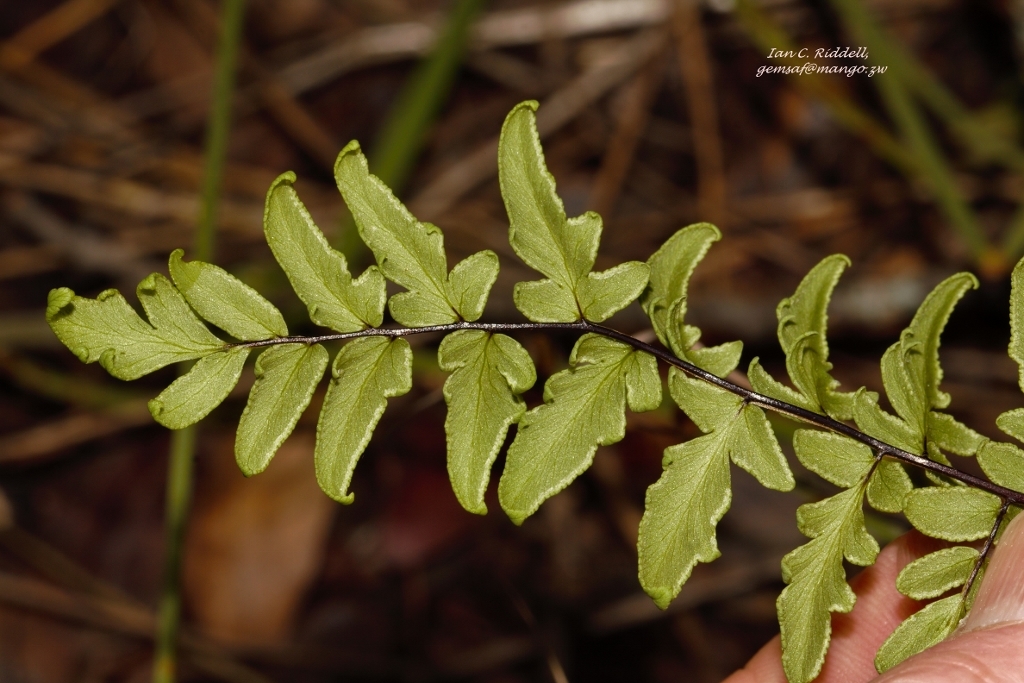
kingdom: Plantae
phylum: Tracheophyta
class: Polypodiopsida
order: Polypodiales
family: Pteridaceae
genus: Cheilanthes
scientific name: Cheilanthes viridis
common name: Green cliffbrake
